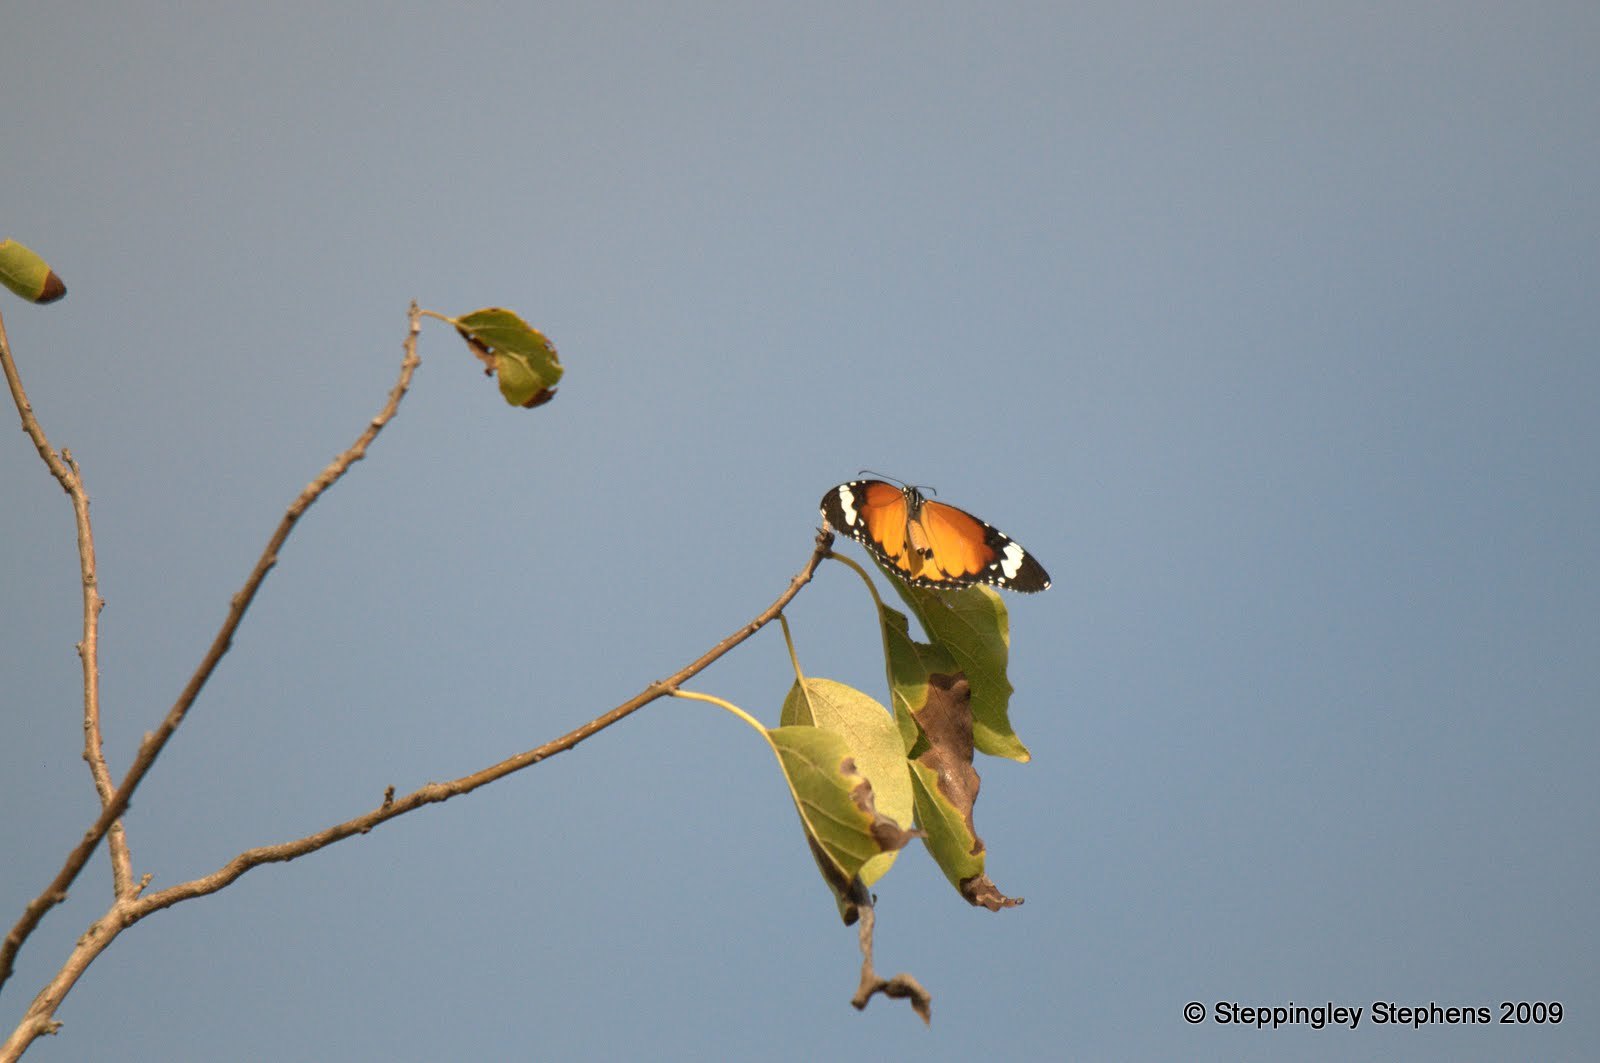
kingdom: Animalia
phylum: Arthropoda
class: Insecta
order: Lepidoptera
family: Nymphalidae
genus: Danaus
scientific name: Danaus chrysippus
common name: Plain tiger
